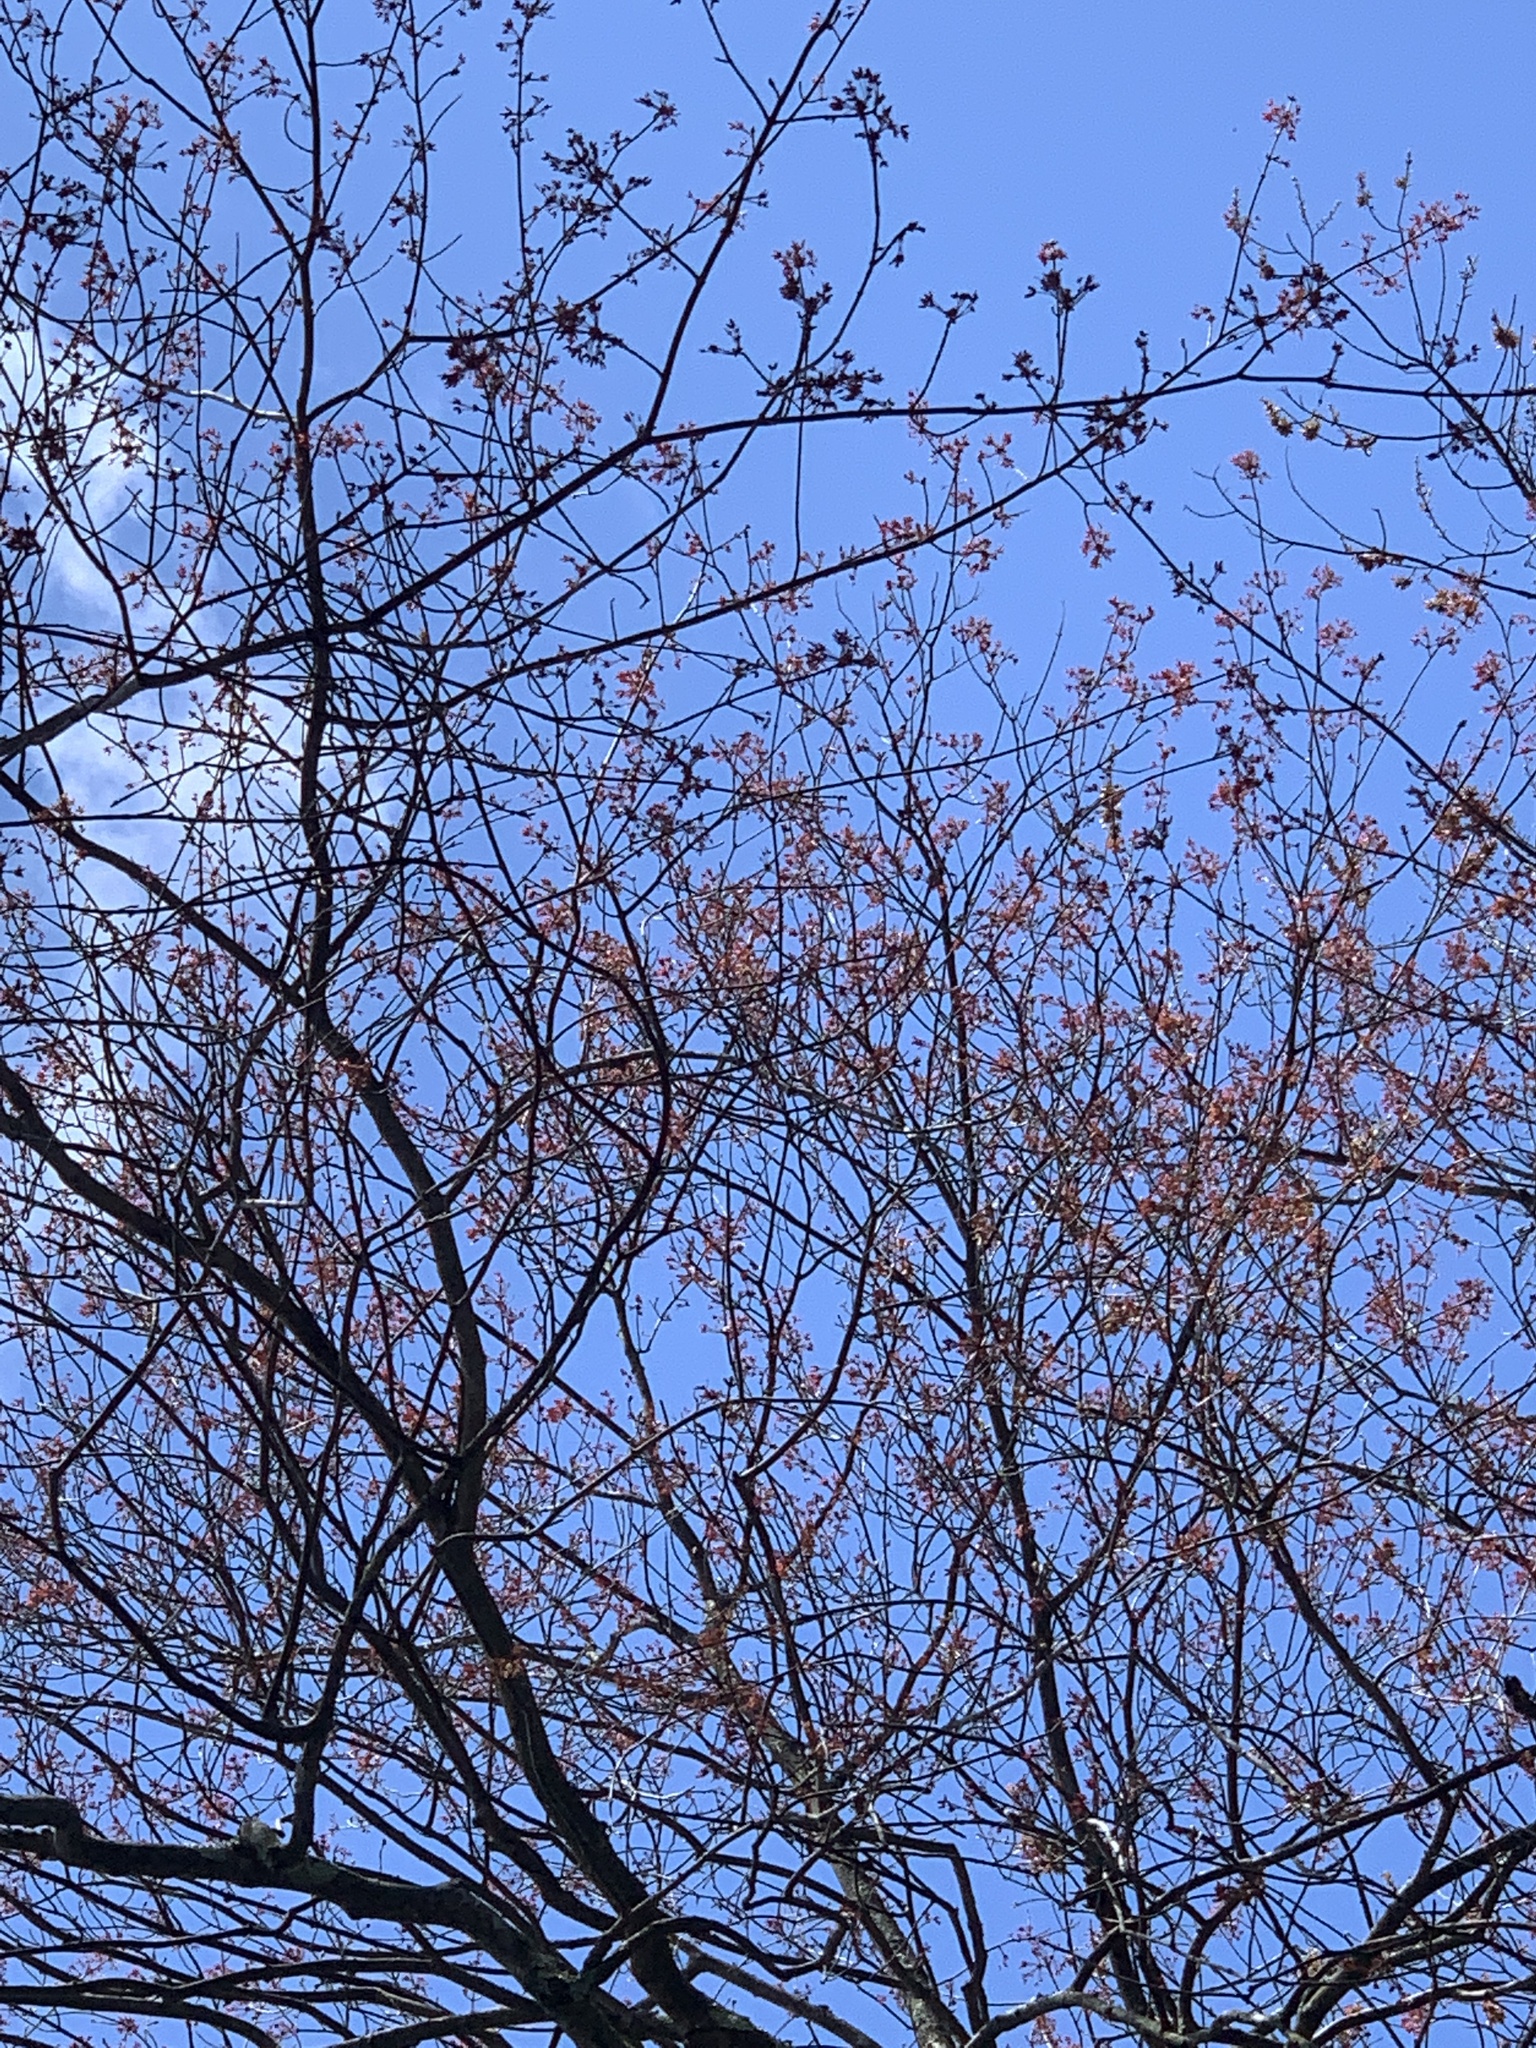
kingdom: Plantae
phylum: Tracheophyta
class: Magnoliopsida
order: Sapindales
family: Sapindaceae
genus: Acer
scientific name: Acer rubrum
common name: Red maple
